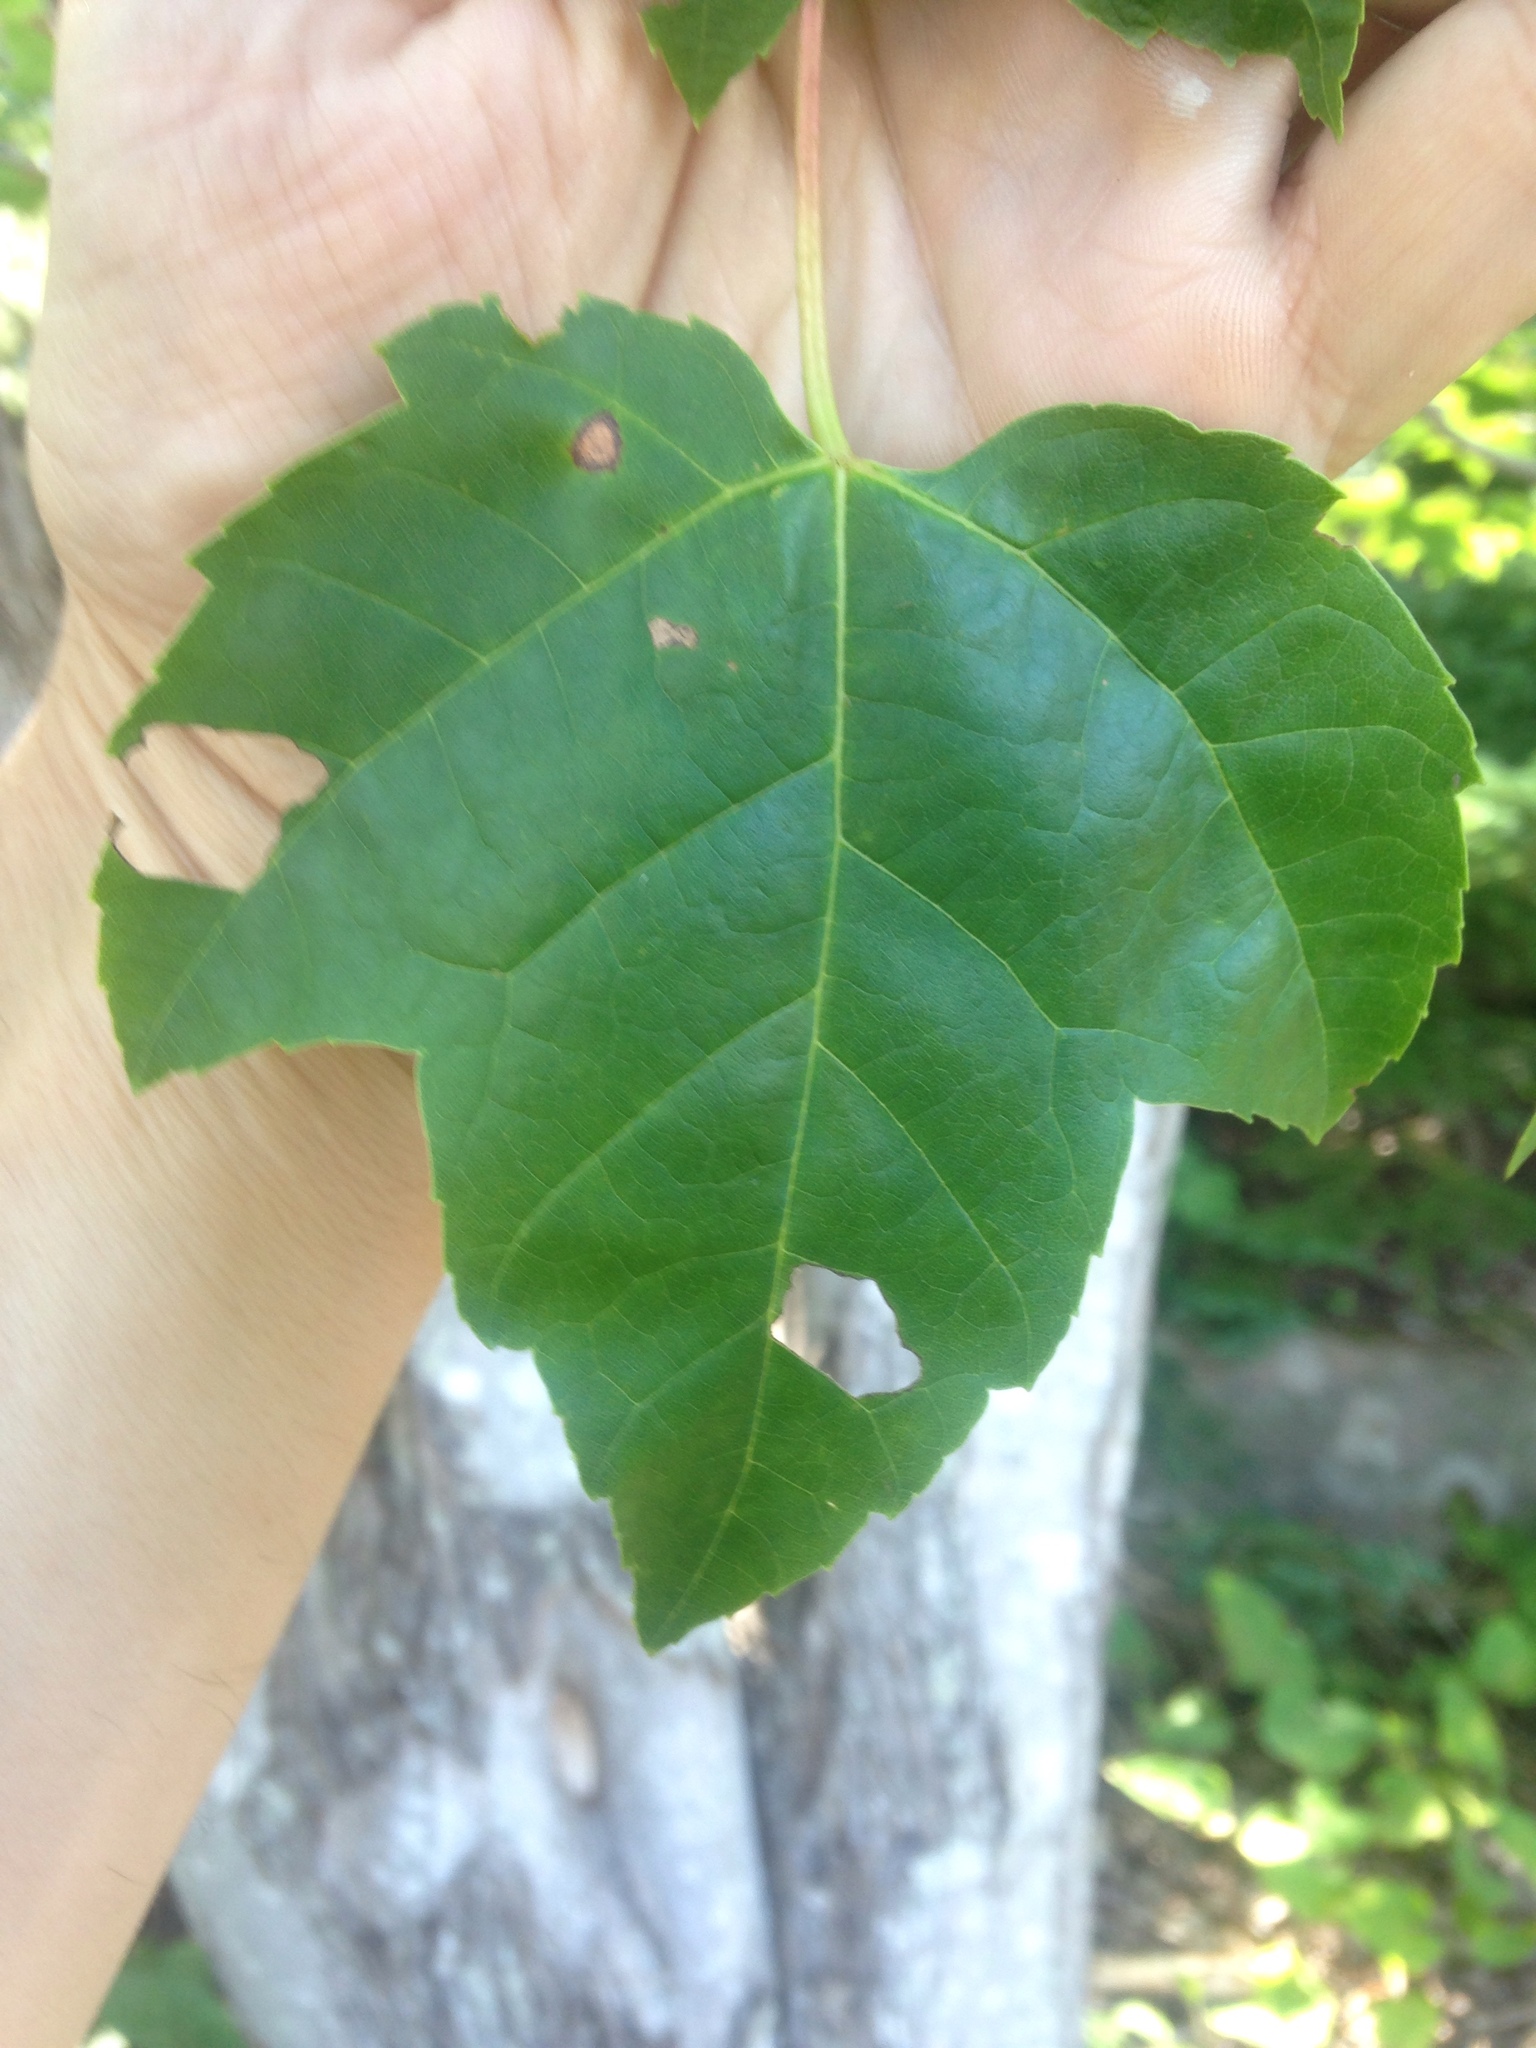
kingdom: Plantae
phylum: Tracheophyta
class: Magnoliopsida
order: Sapindales
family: Sapindaceae
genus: Acer
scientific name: Acer rubrum
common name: Red maple
